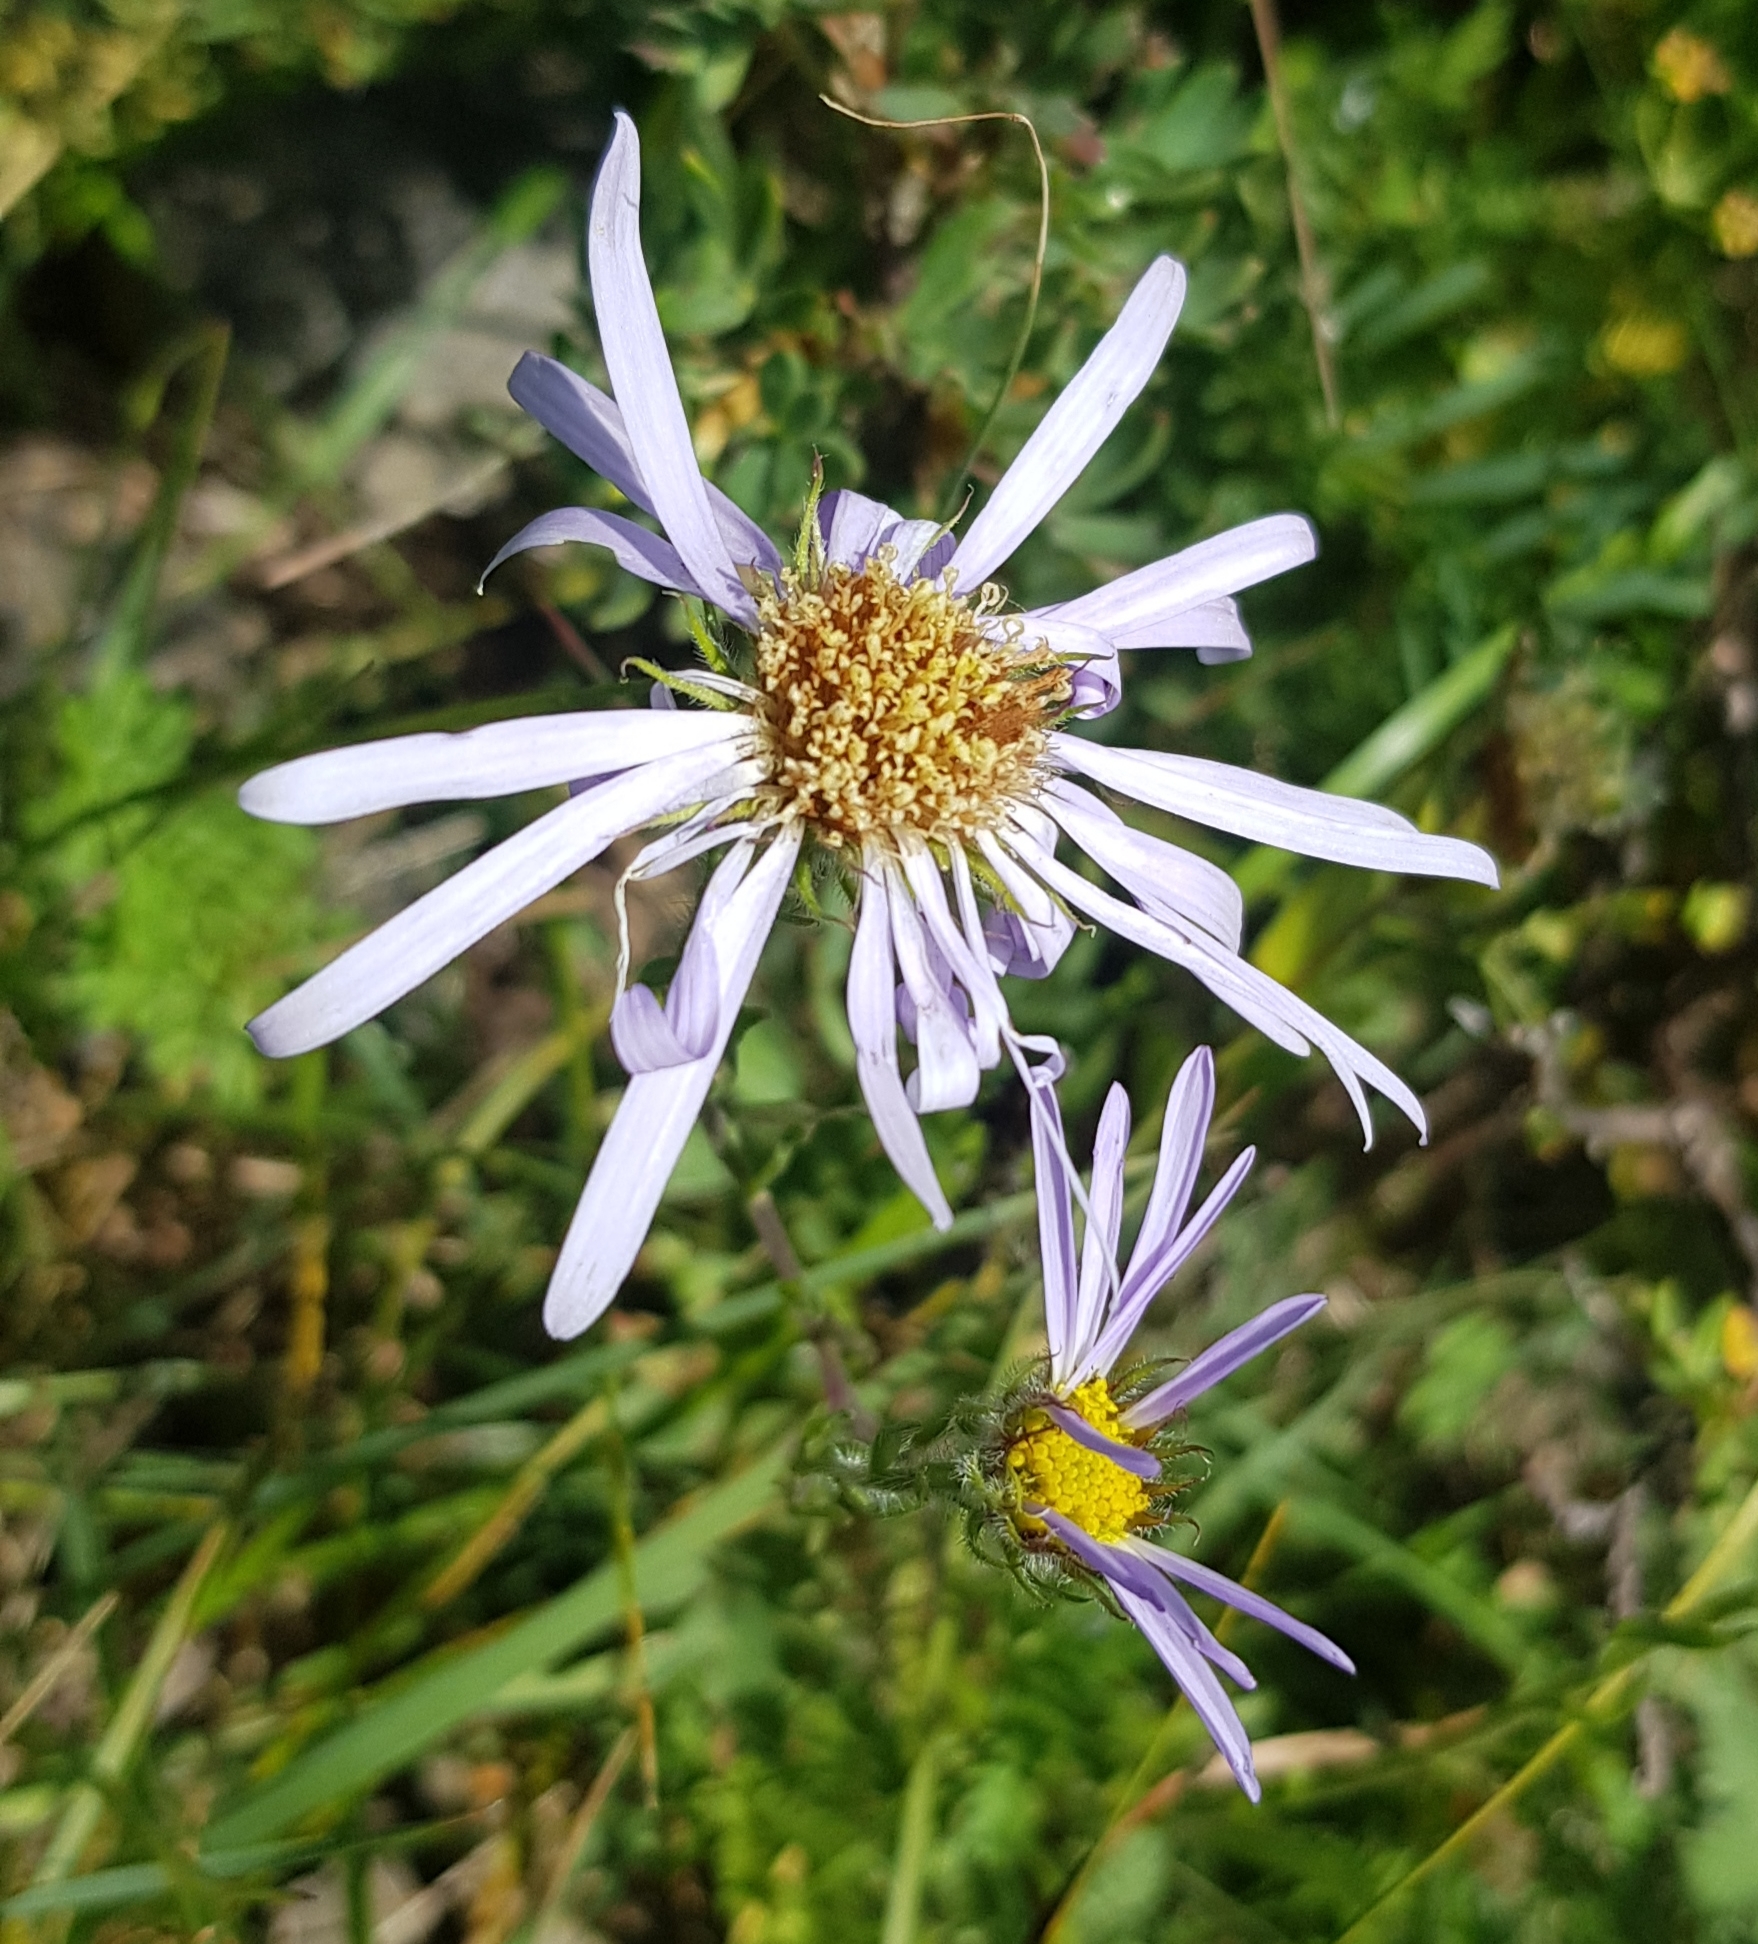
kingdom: Plantae
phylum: Tracheophyta
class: Magnoliopsida
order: Asterales
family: Asteraceae
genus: Heteropappus
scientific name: Heteropappus altaicus
